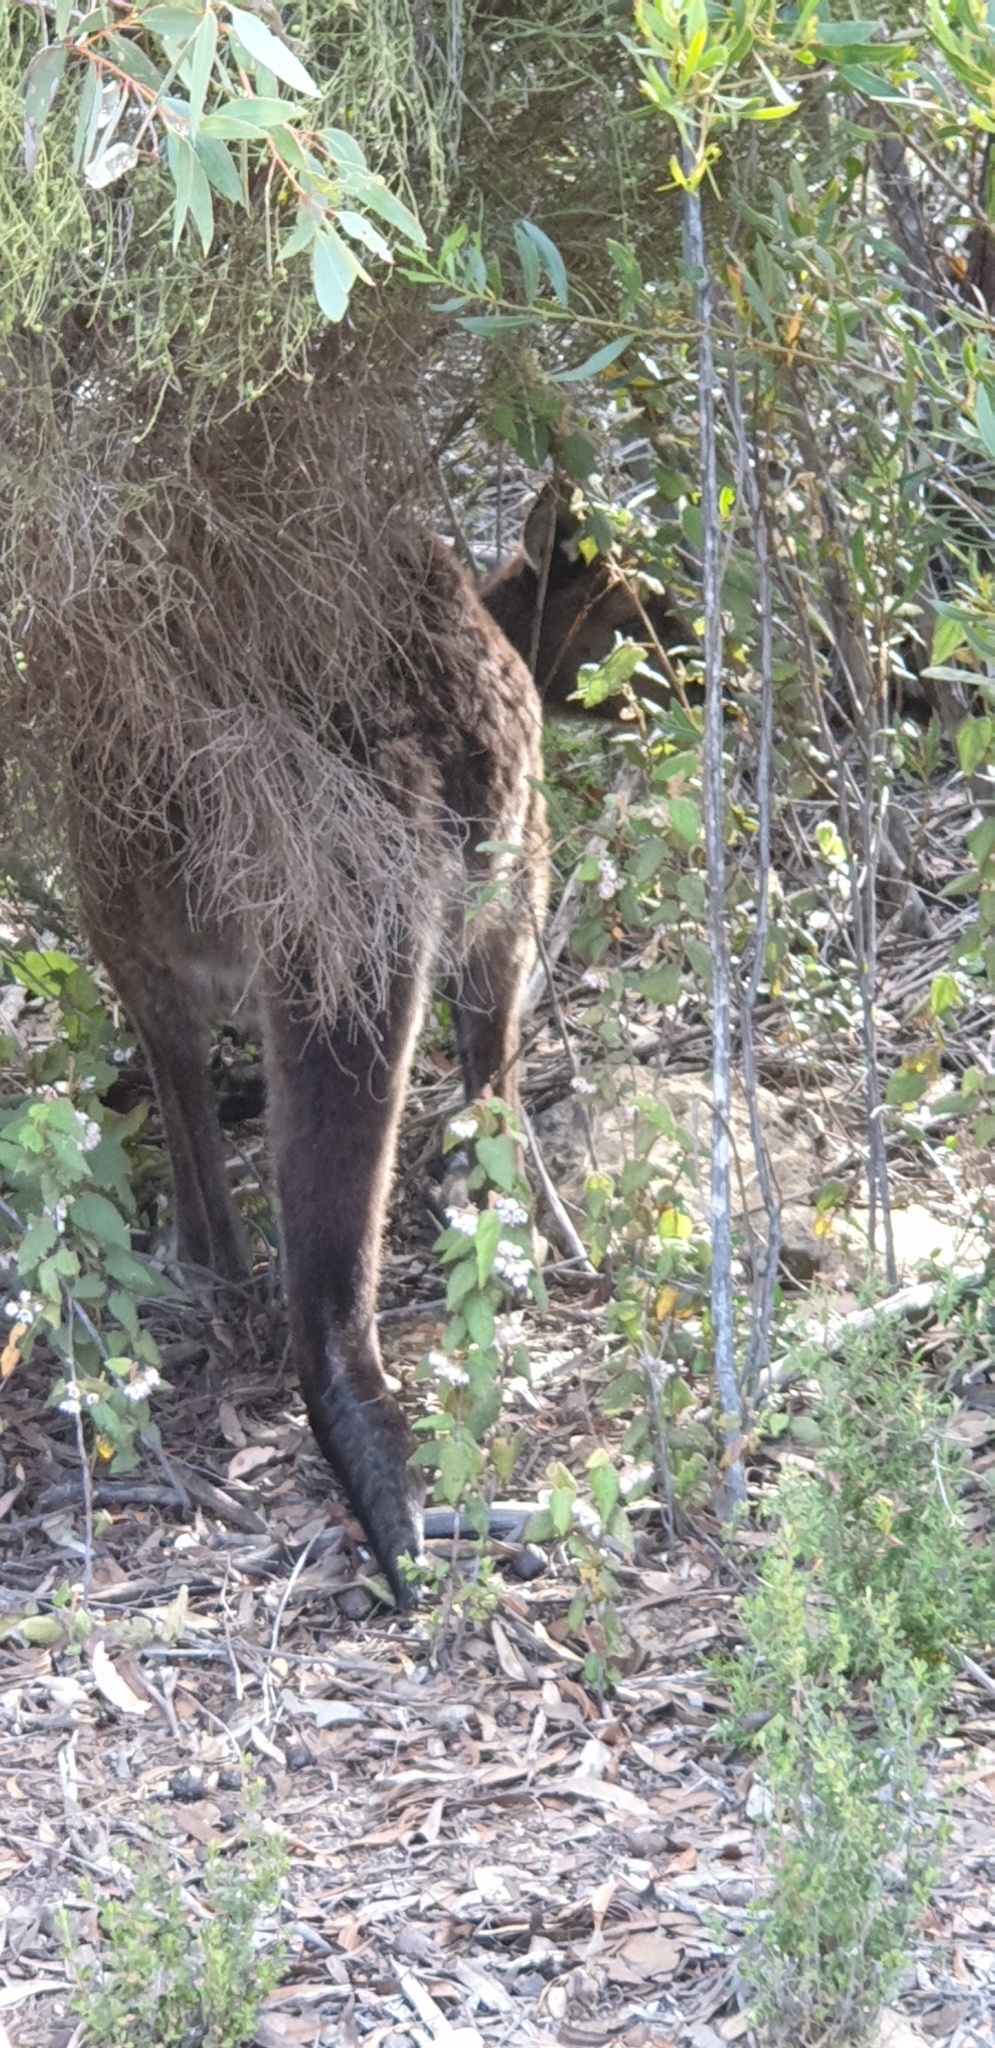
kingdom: Animalia
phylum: Chordata
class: Mammalia
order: Diprotodontia
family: Macropodidae
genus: Macropus
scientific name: Macropus fuliginosus
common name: Western grey kangaroo
